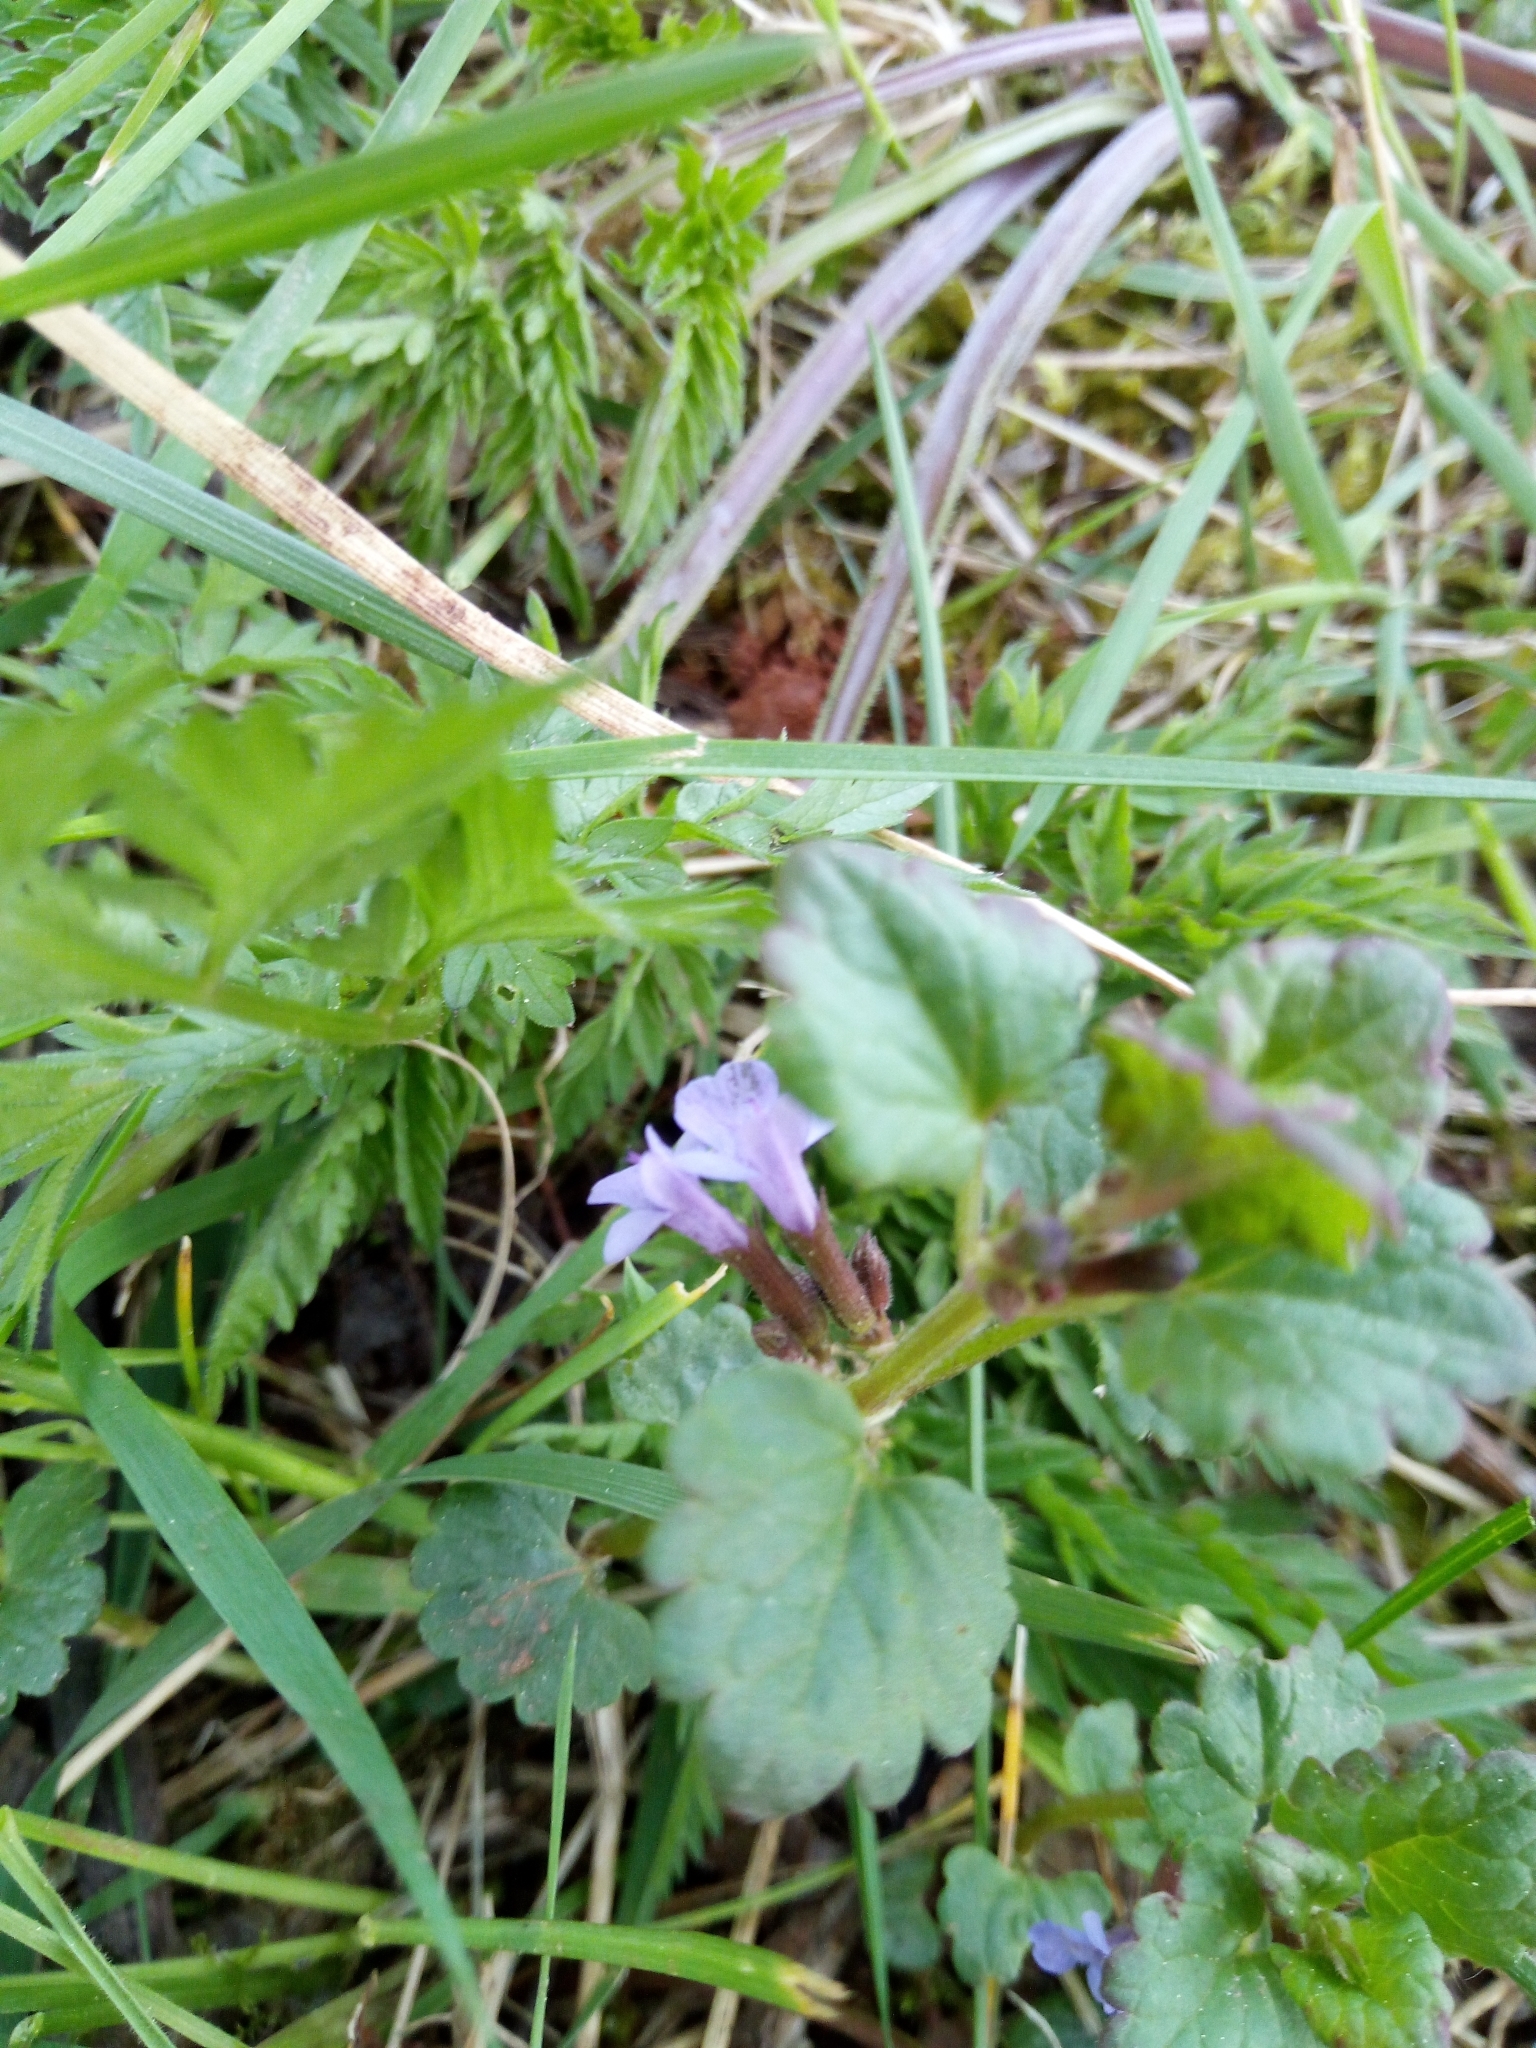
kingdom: Plantae
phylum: Tracheophyta
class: Magnoliopsida
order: Lamiales
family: Lamiaceae
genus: Glechoma
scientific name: Glechoma hederacea
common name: Ground ivy
